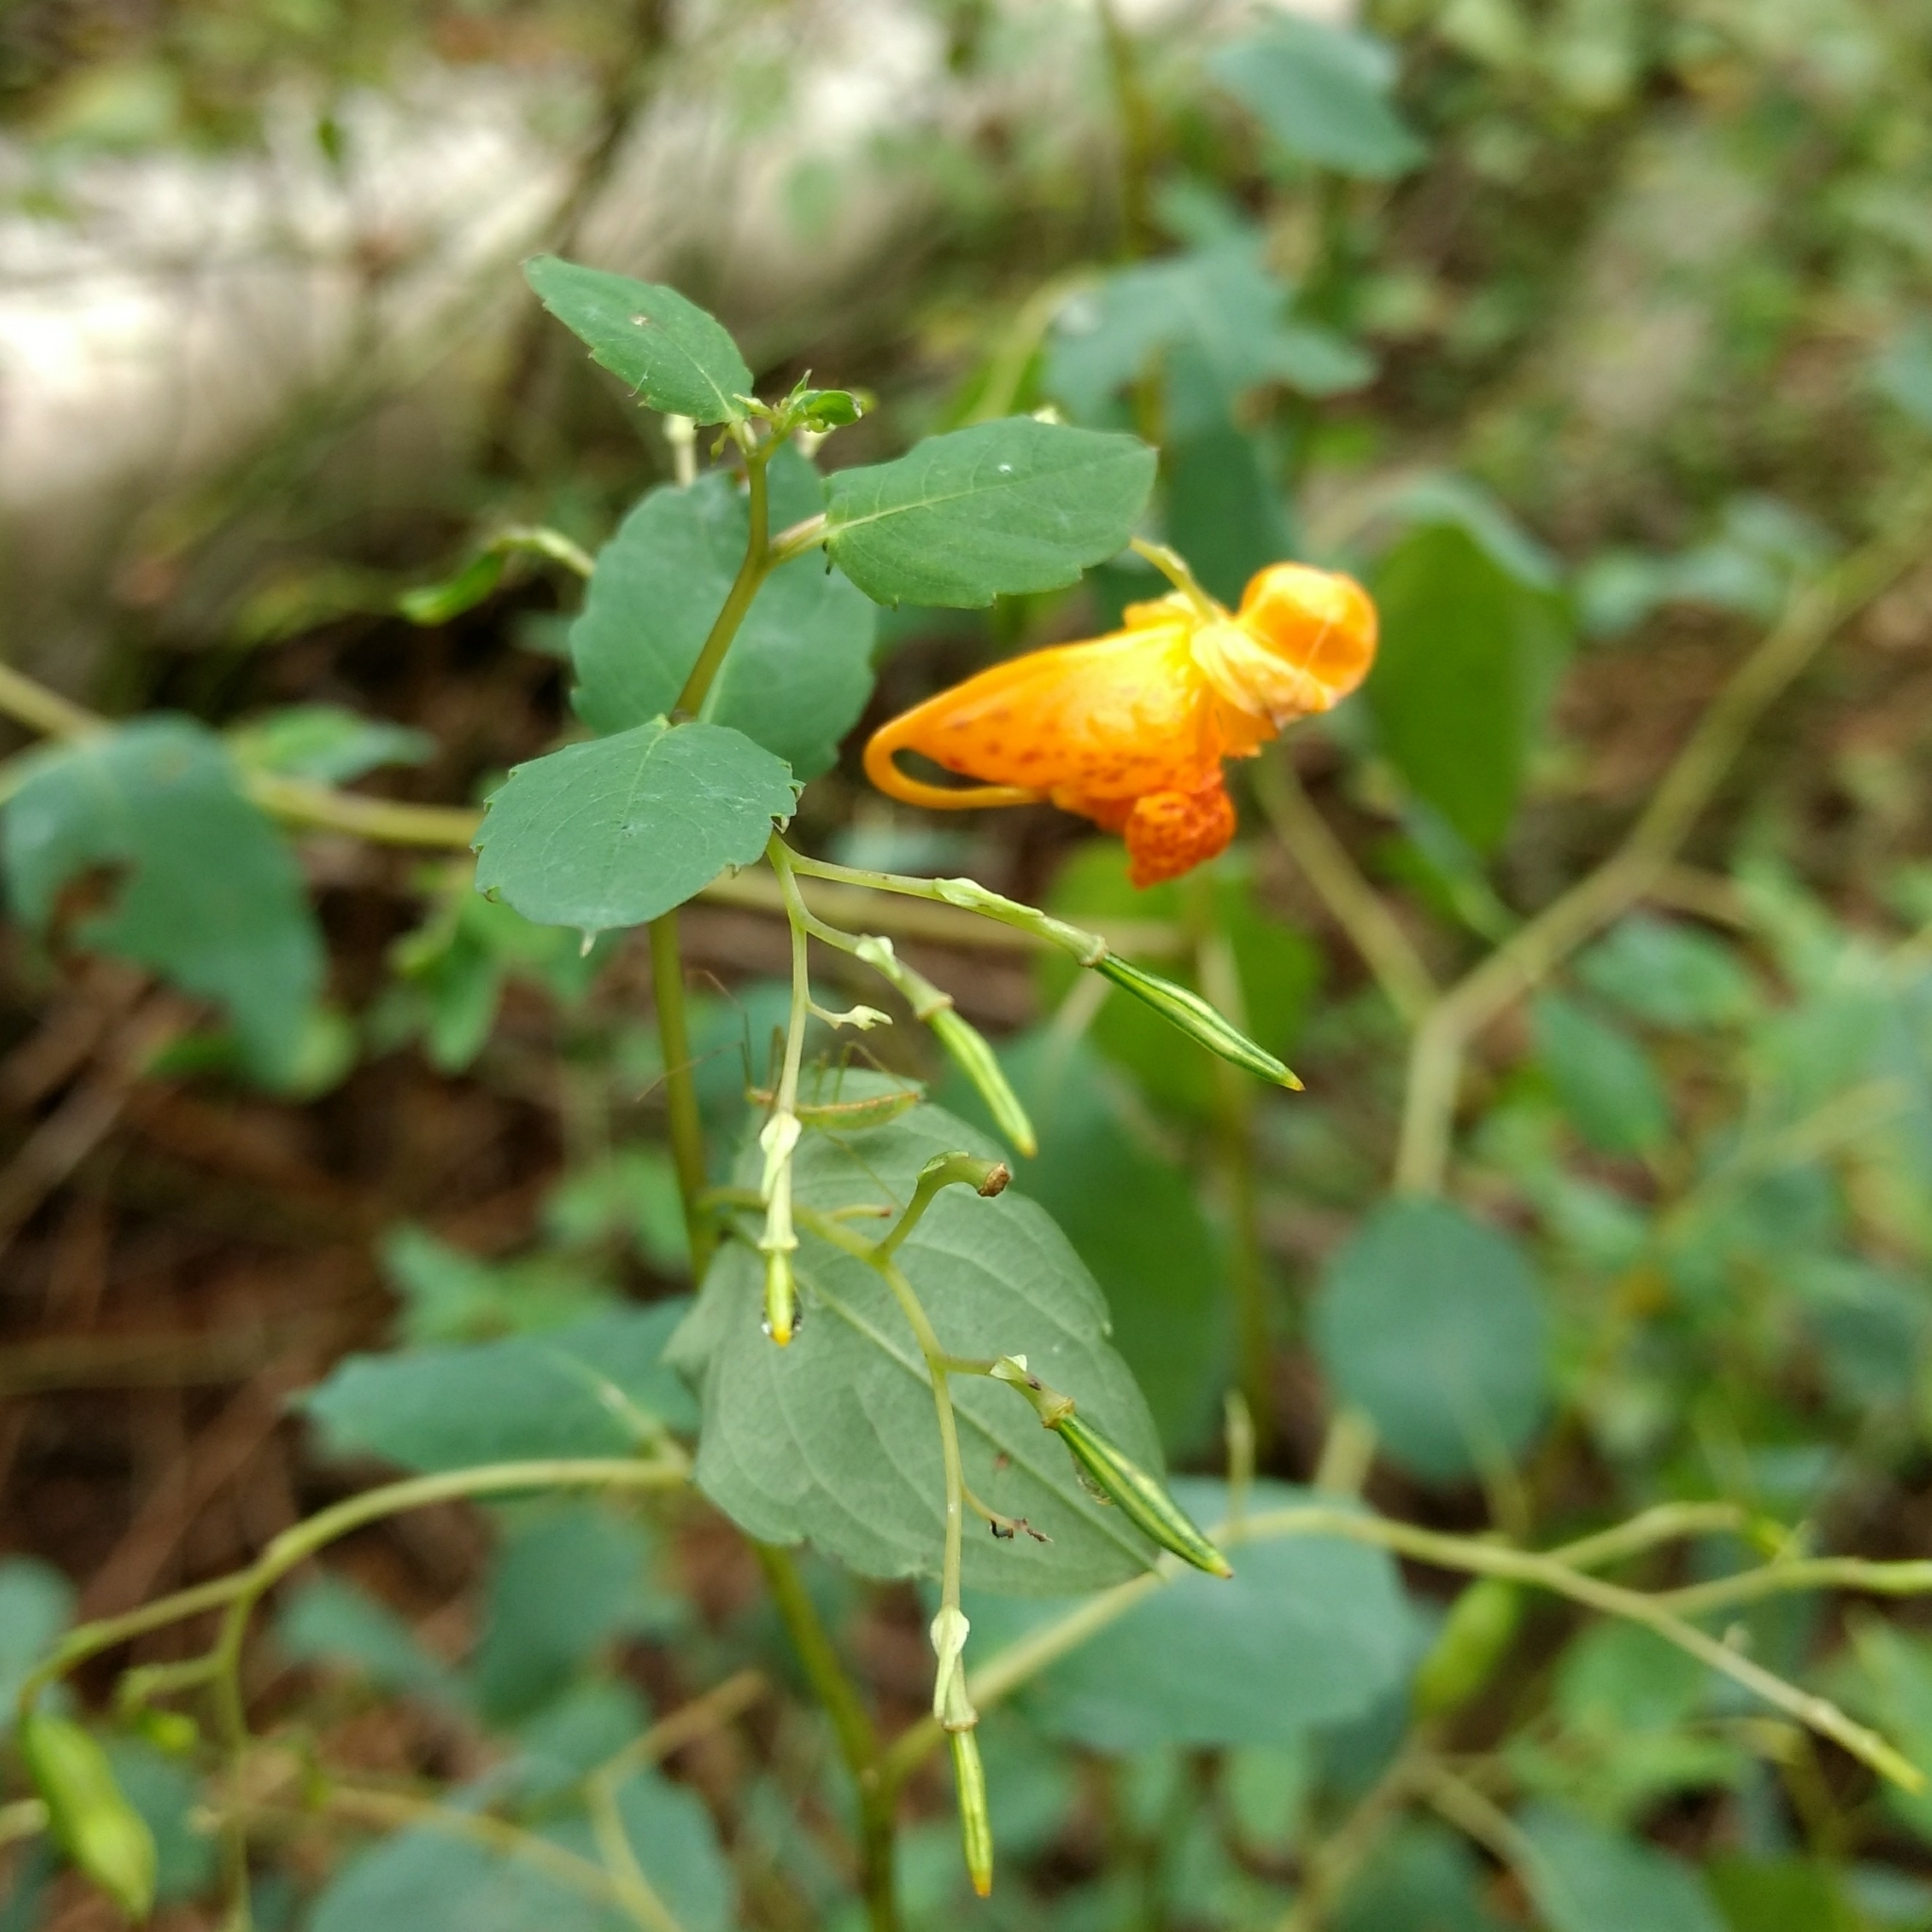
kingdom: Plantae
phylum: Tracheophyta
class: Magnoliopsida
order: Ericales
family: Balsaminaceae
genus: Impatiens
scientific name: Impatiens capensis
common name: Orange balsam
